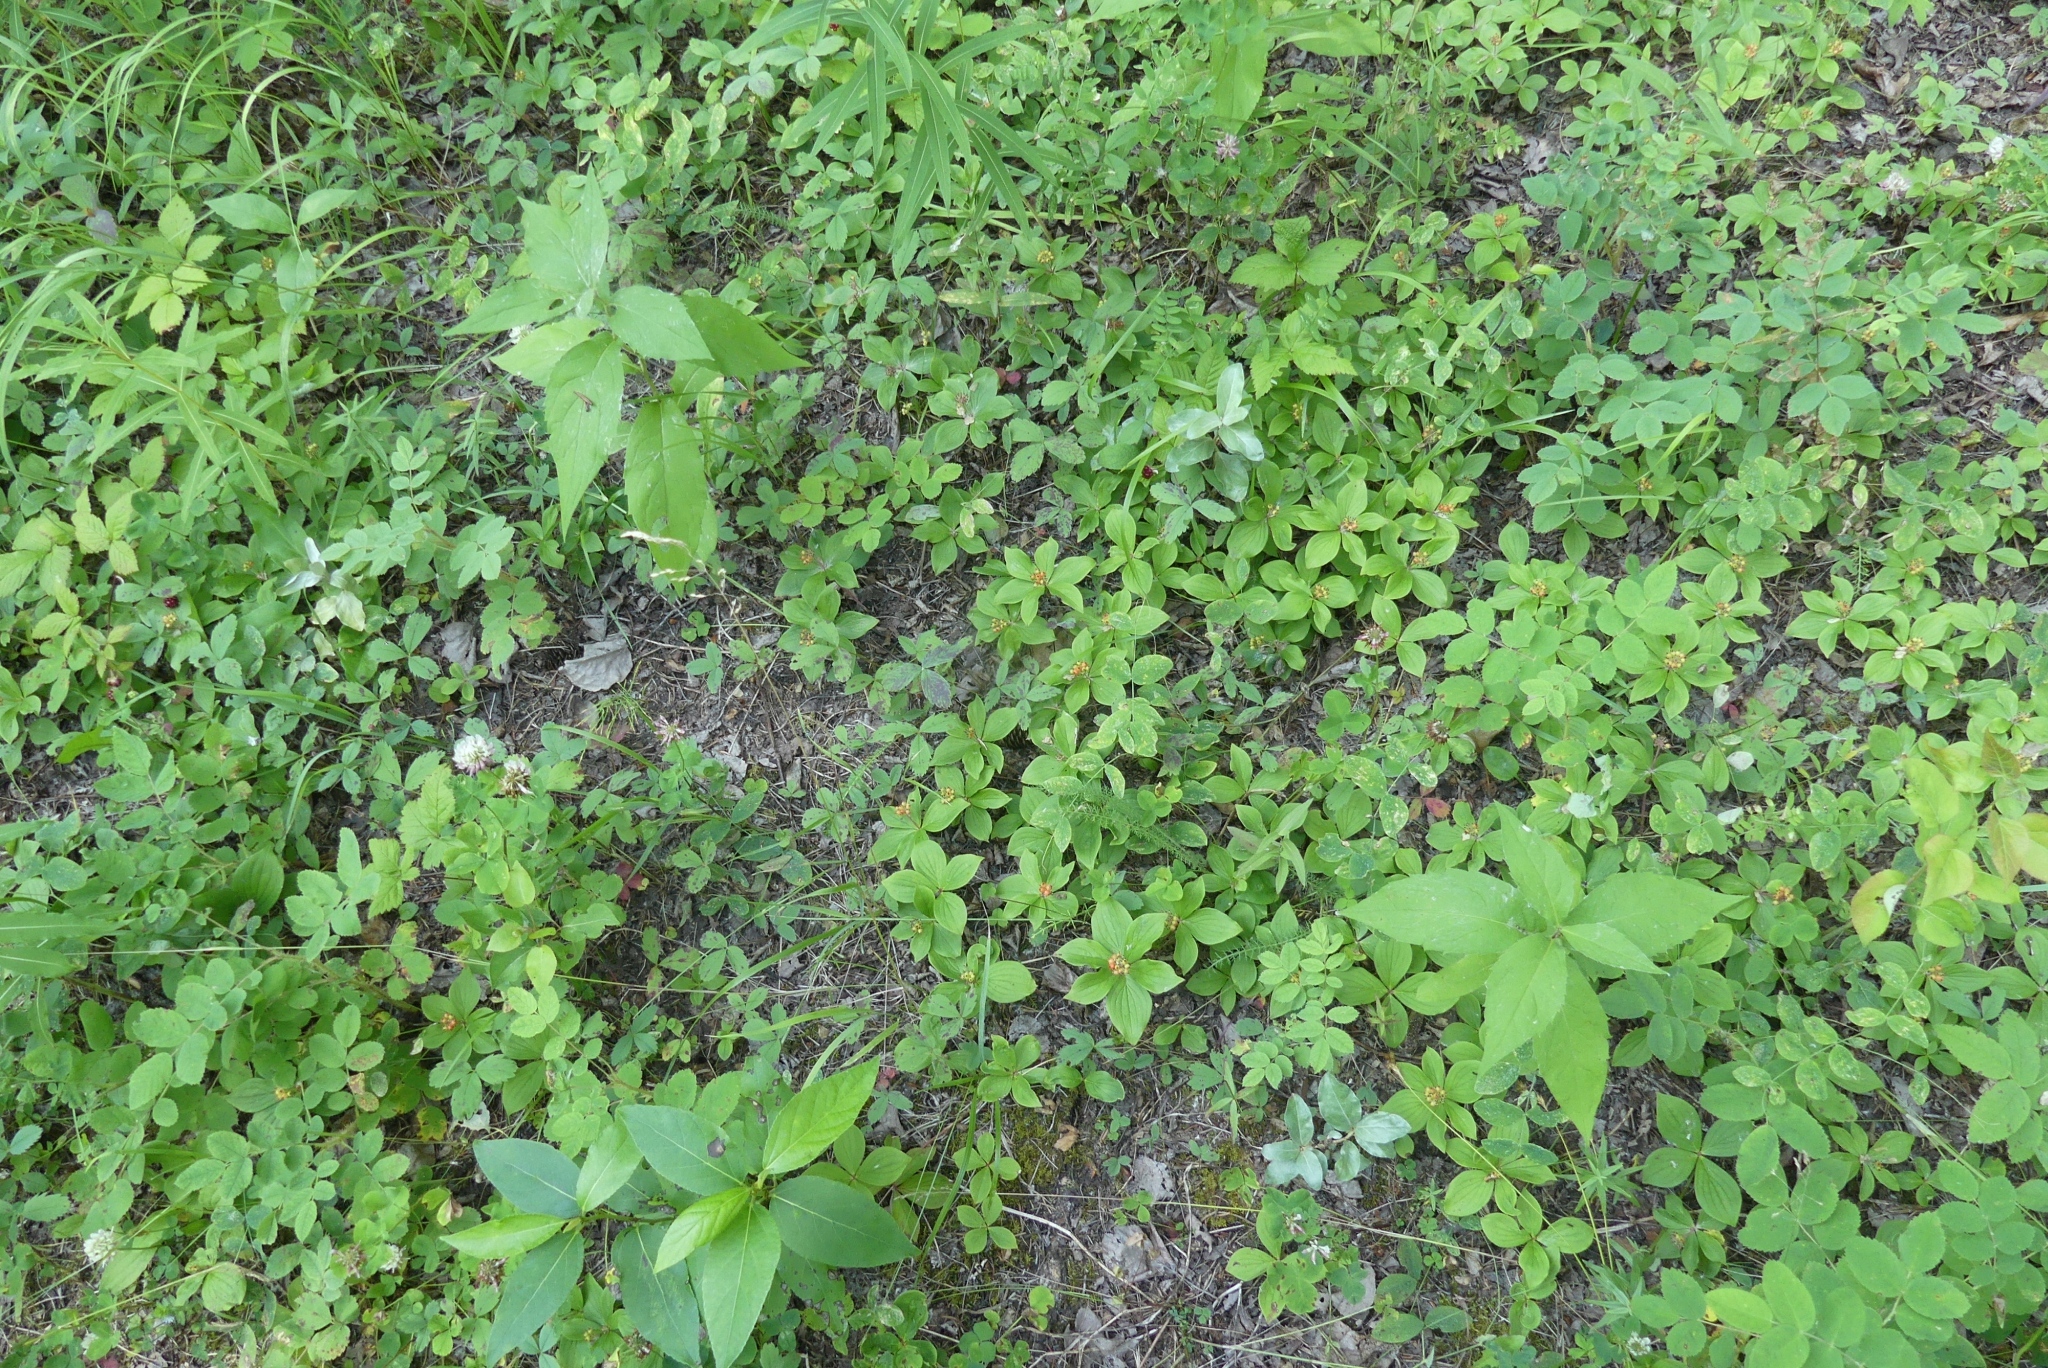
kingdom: Plantae
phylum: Tracheophyta
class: Magnoliopsida
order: Cornales
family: Cornaceae
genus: Cornus
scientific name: Cornus canadensis
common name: Creeping dogwood
